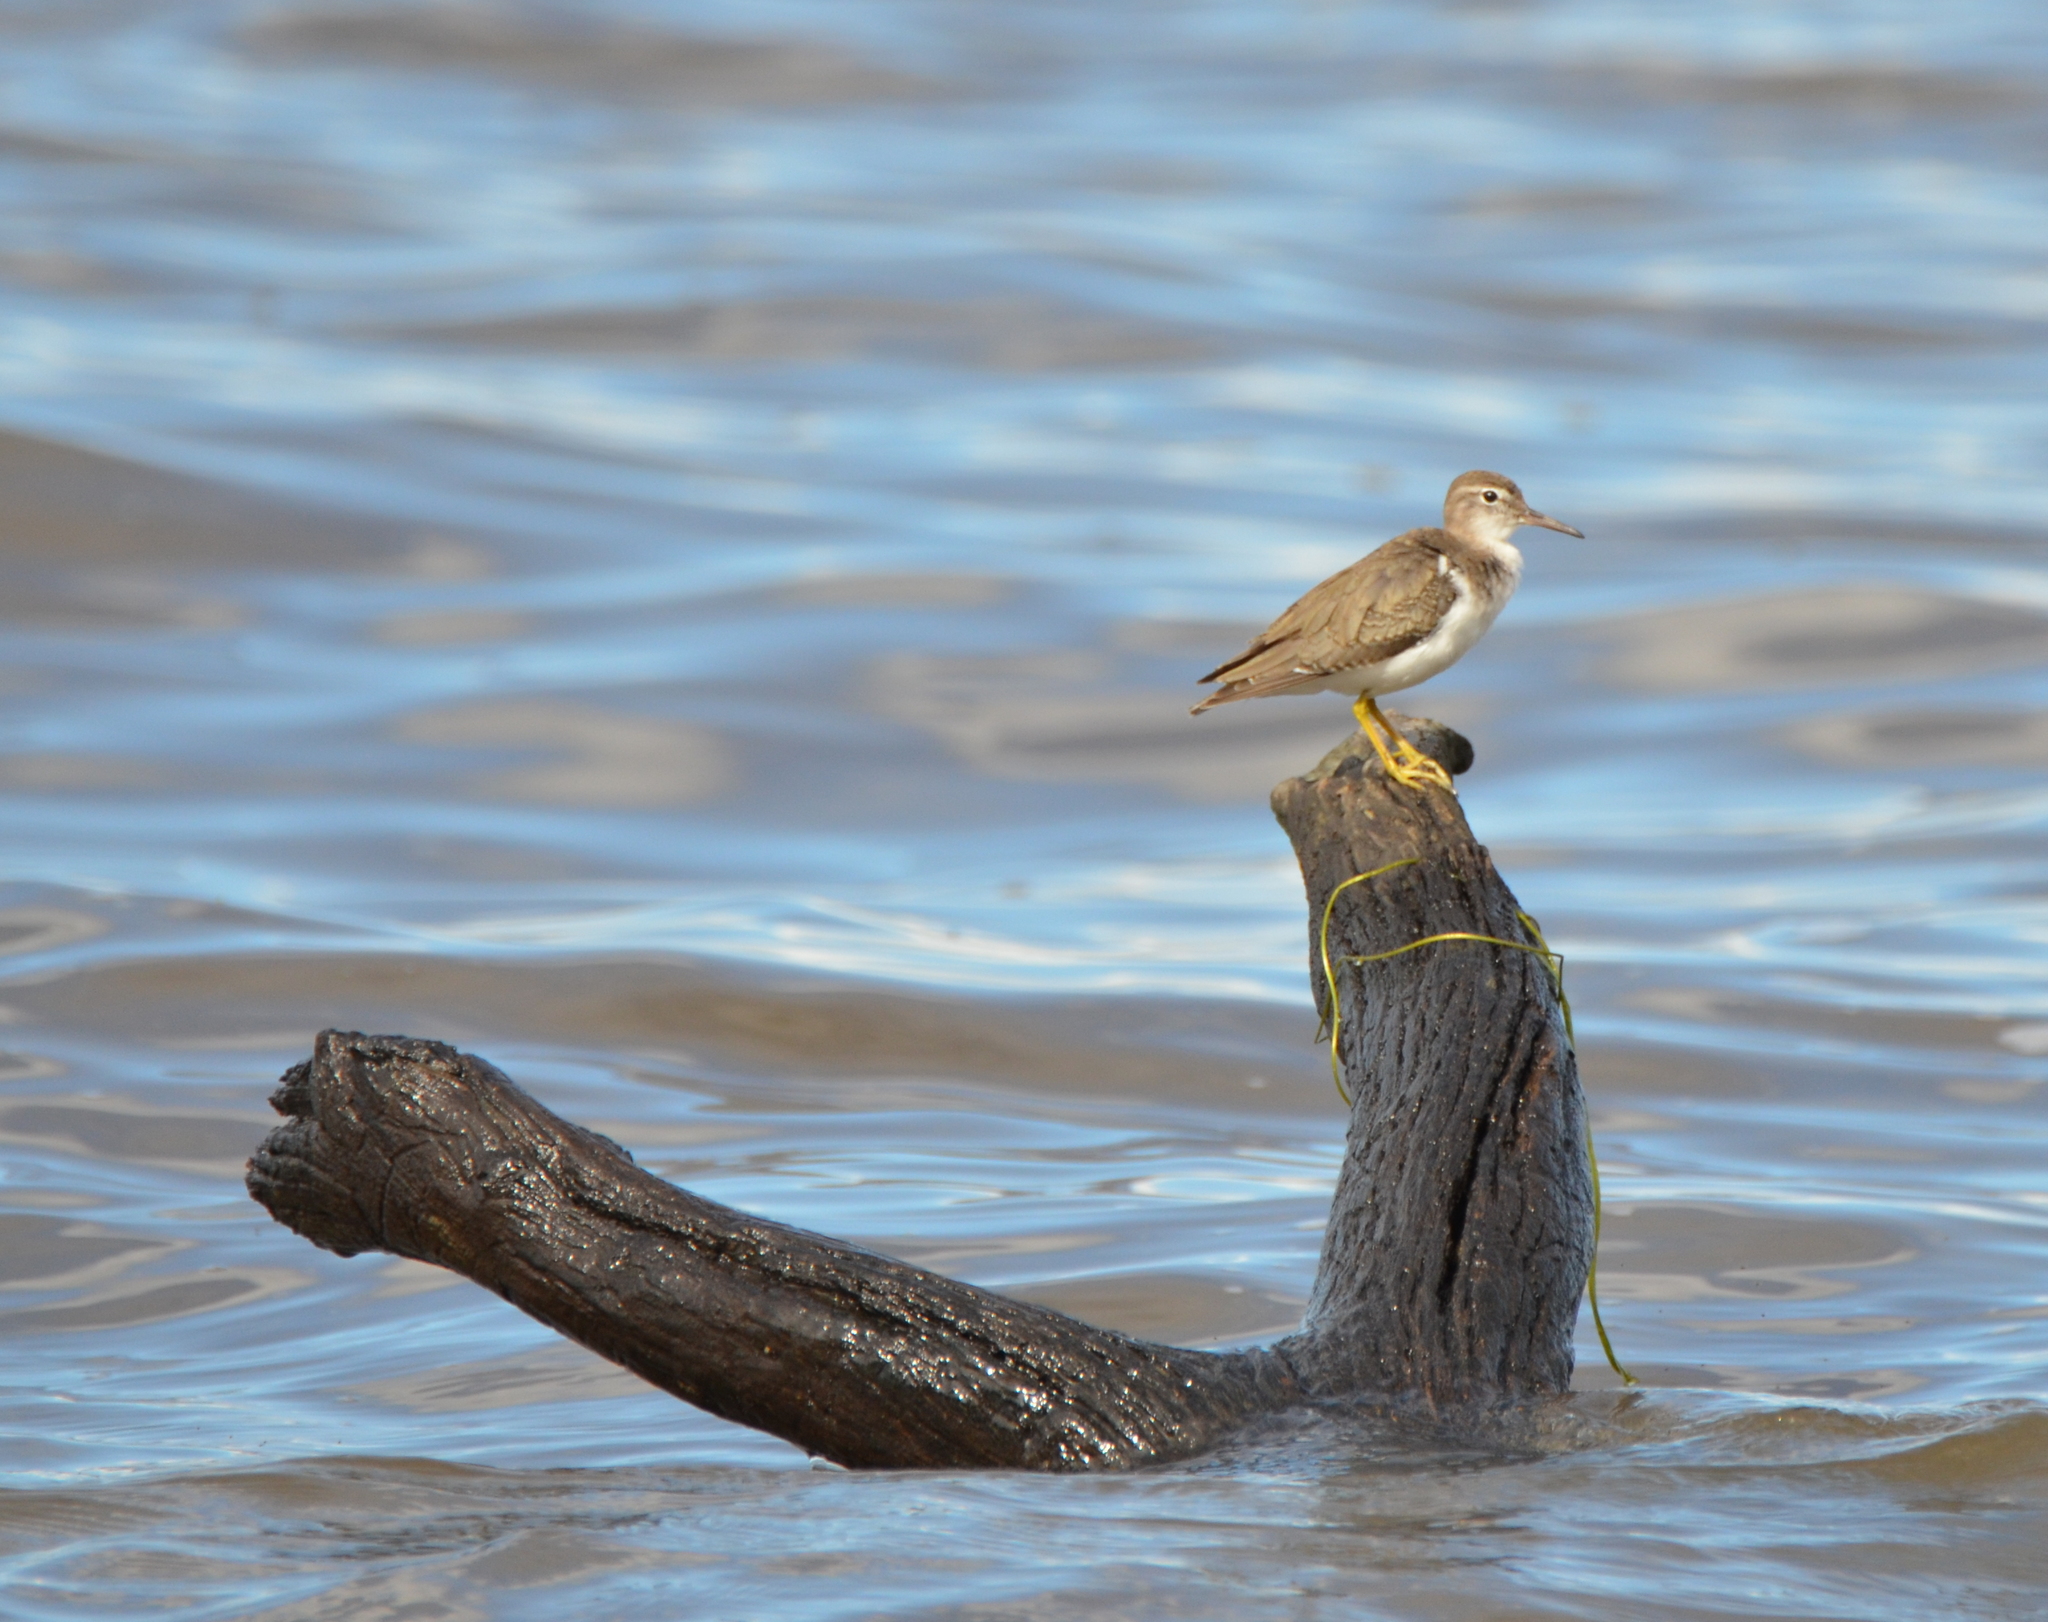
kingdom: Animalia
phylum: Chordata
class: Aves
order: Charadriiformes
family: Scolopacidae
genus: Actitis
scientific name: Actitis macularius
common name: Spotted sandpiper
